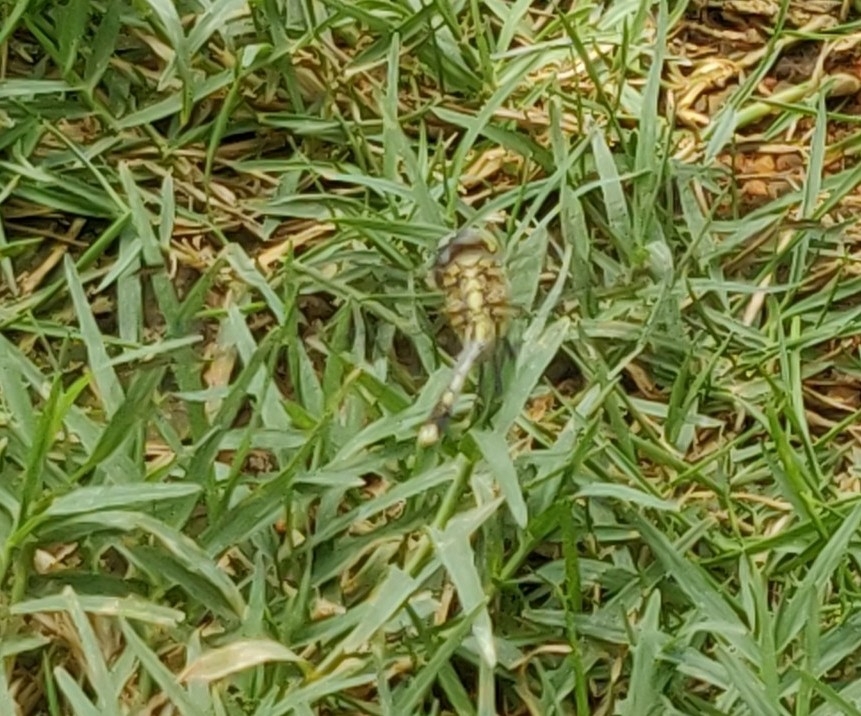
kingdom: Animalia
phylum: Arthropoda
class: Insecta
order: Odonata
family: Libellulidae
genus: Diplacodes
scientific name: Diplacodes trivialis
